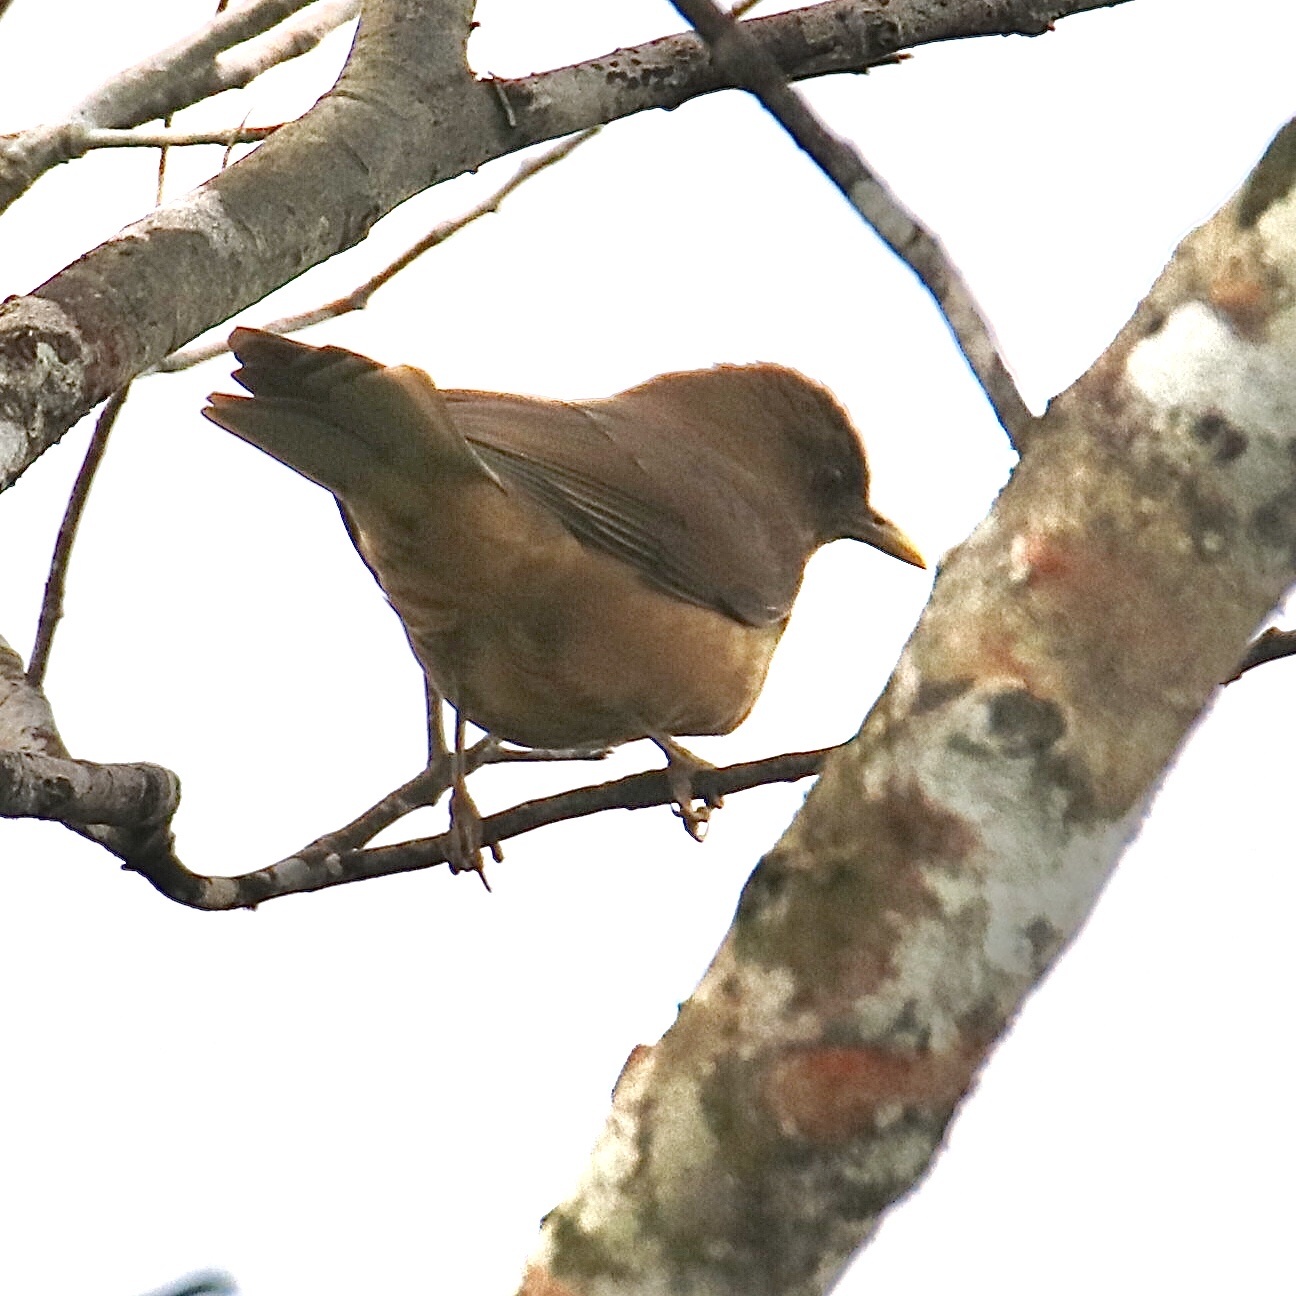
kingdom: Animalia
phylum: Chordata
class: Aves
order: Passeriformes
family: Turdidae
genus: Turdus
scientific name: Turdus grayi
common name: Clay-colored thrush
